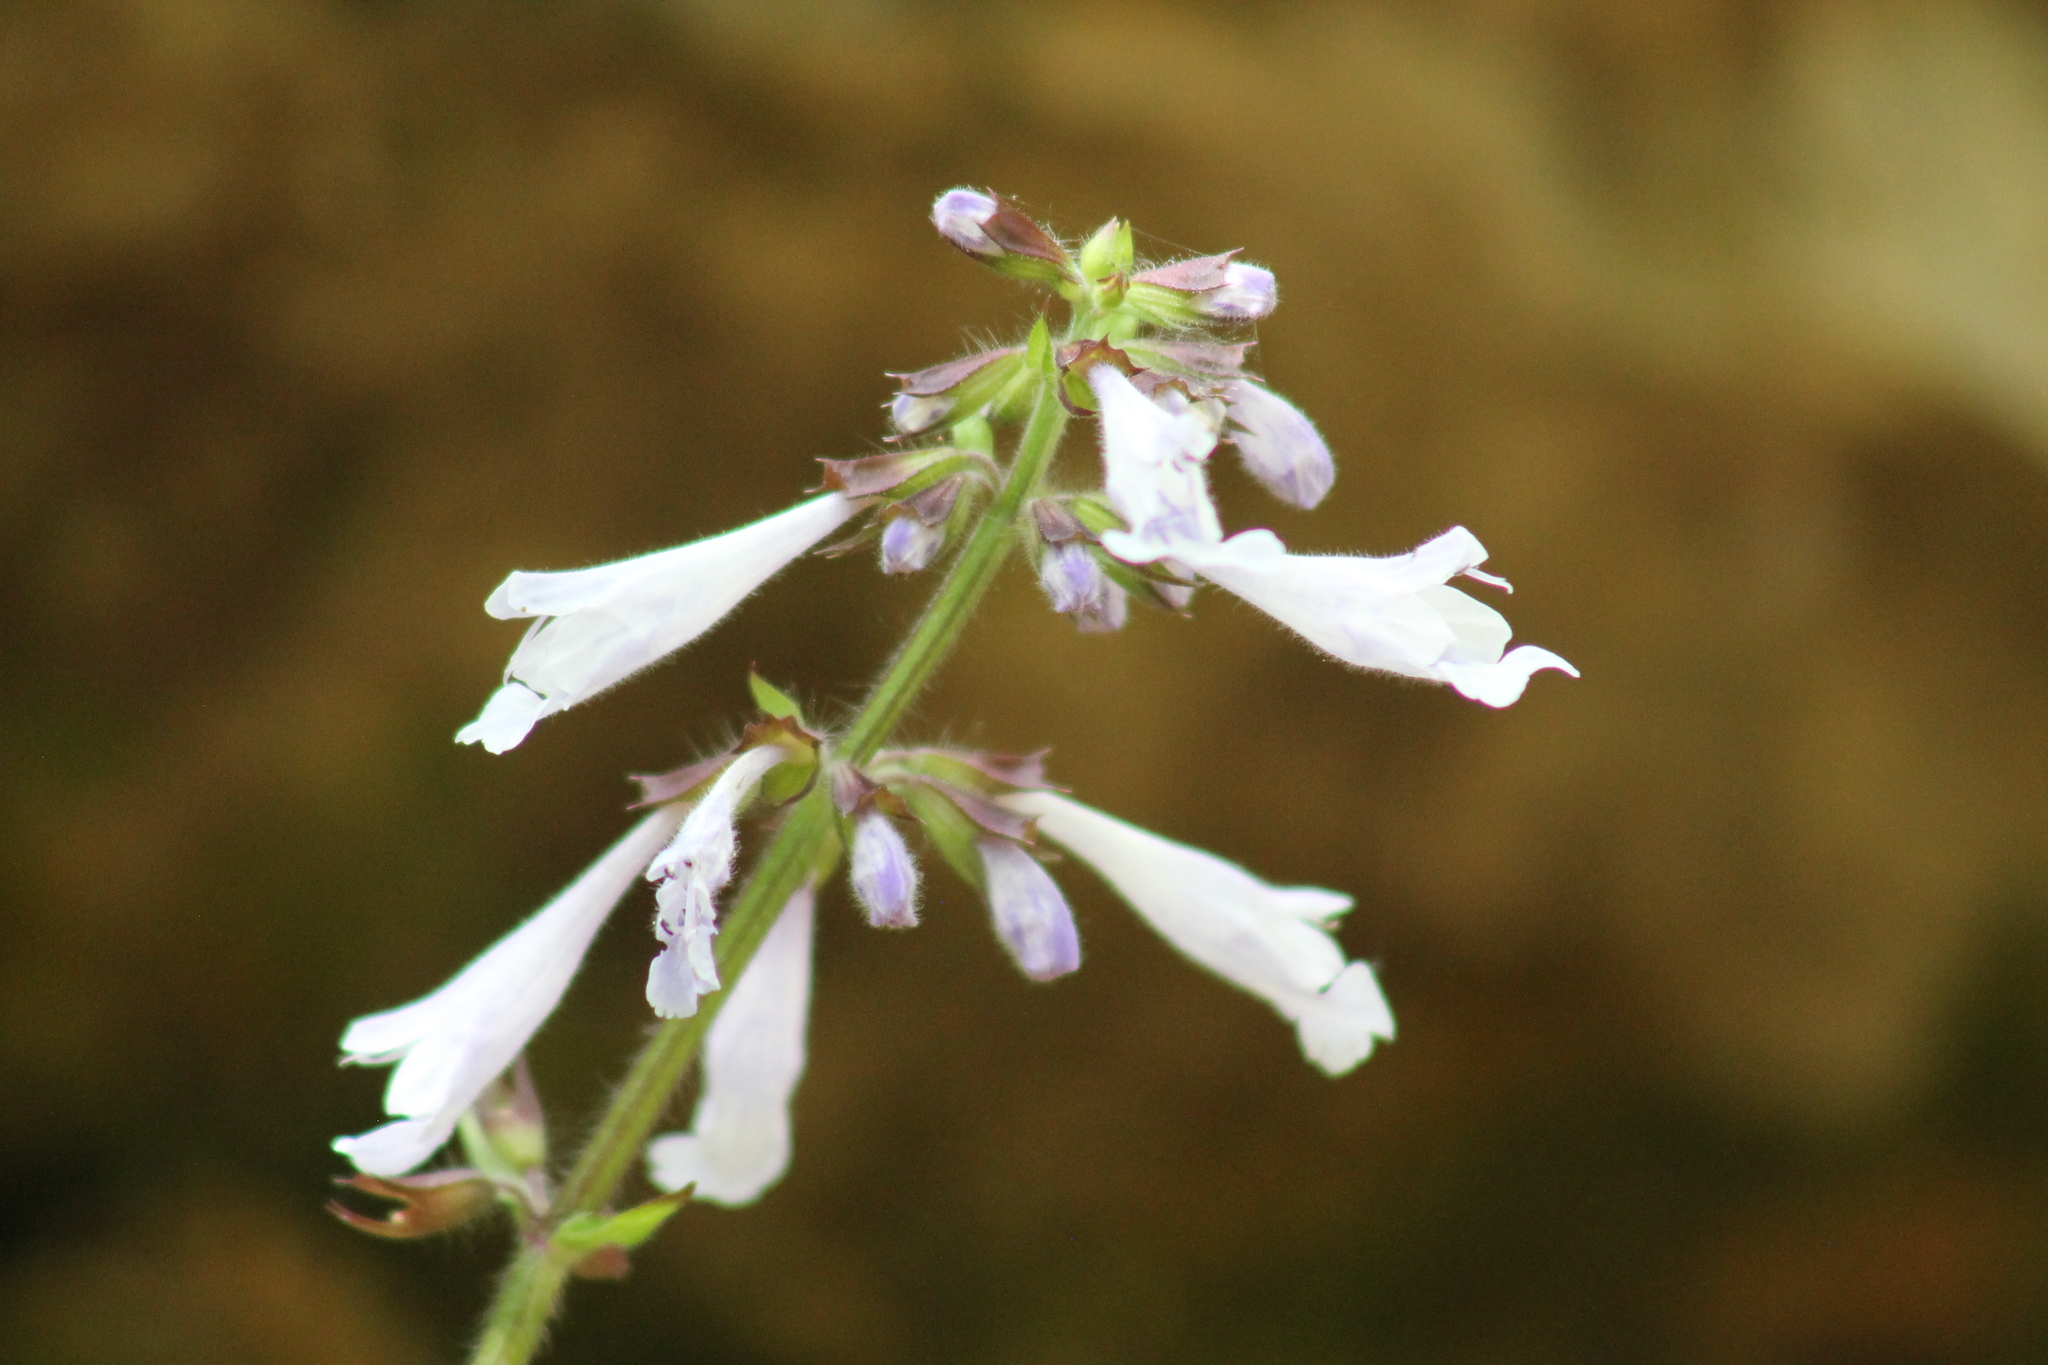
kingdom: Plantae
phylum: Tracheophyta
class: Magnoliopsida
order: Lamiales
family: Lamiaceae
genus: Salvia
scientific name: Salvia lyrata
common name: Cancerweed
